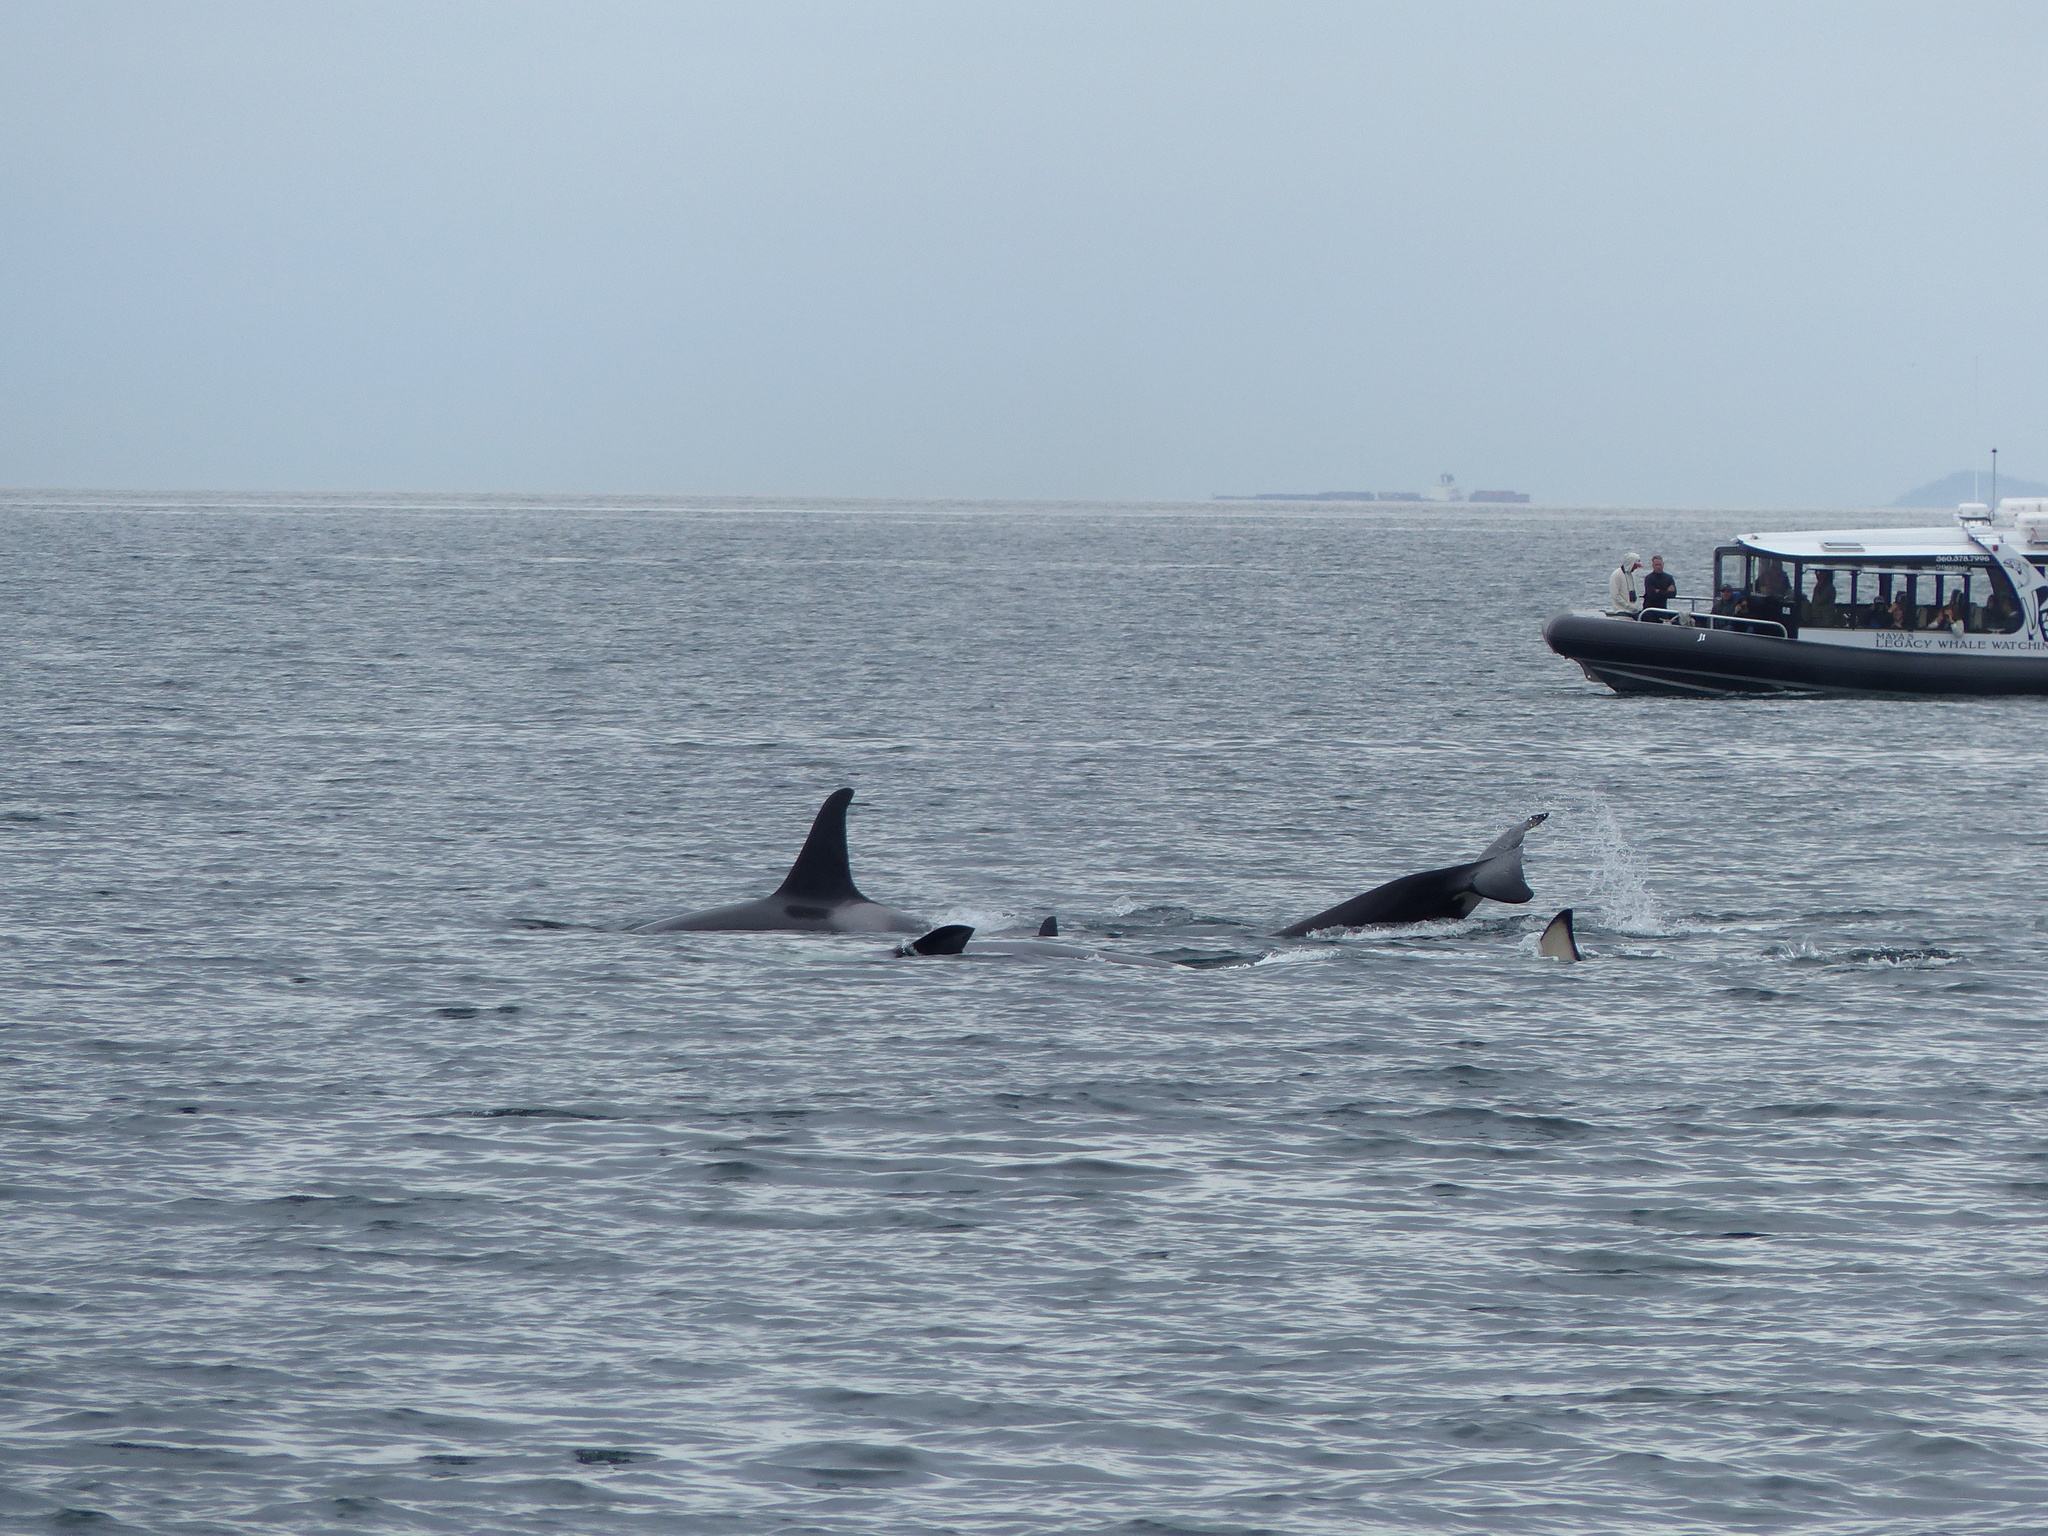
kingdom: Animalia
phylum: Chordata
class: Mammalia
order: Cetacea
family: Delphinidae
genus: Orcinus
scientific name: Orcinus orca
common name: Killer whale
